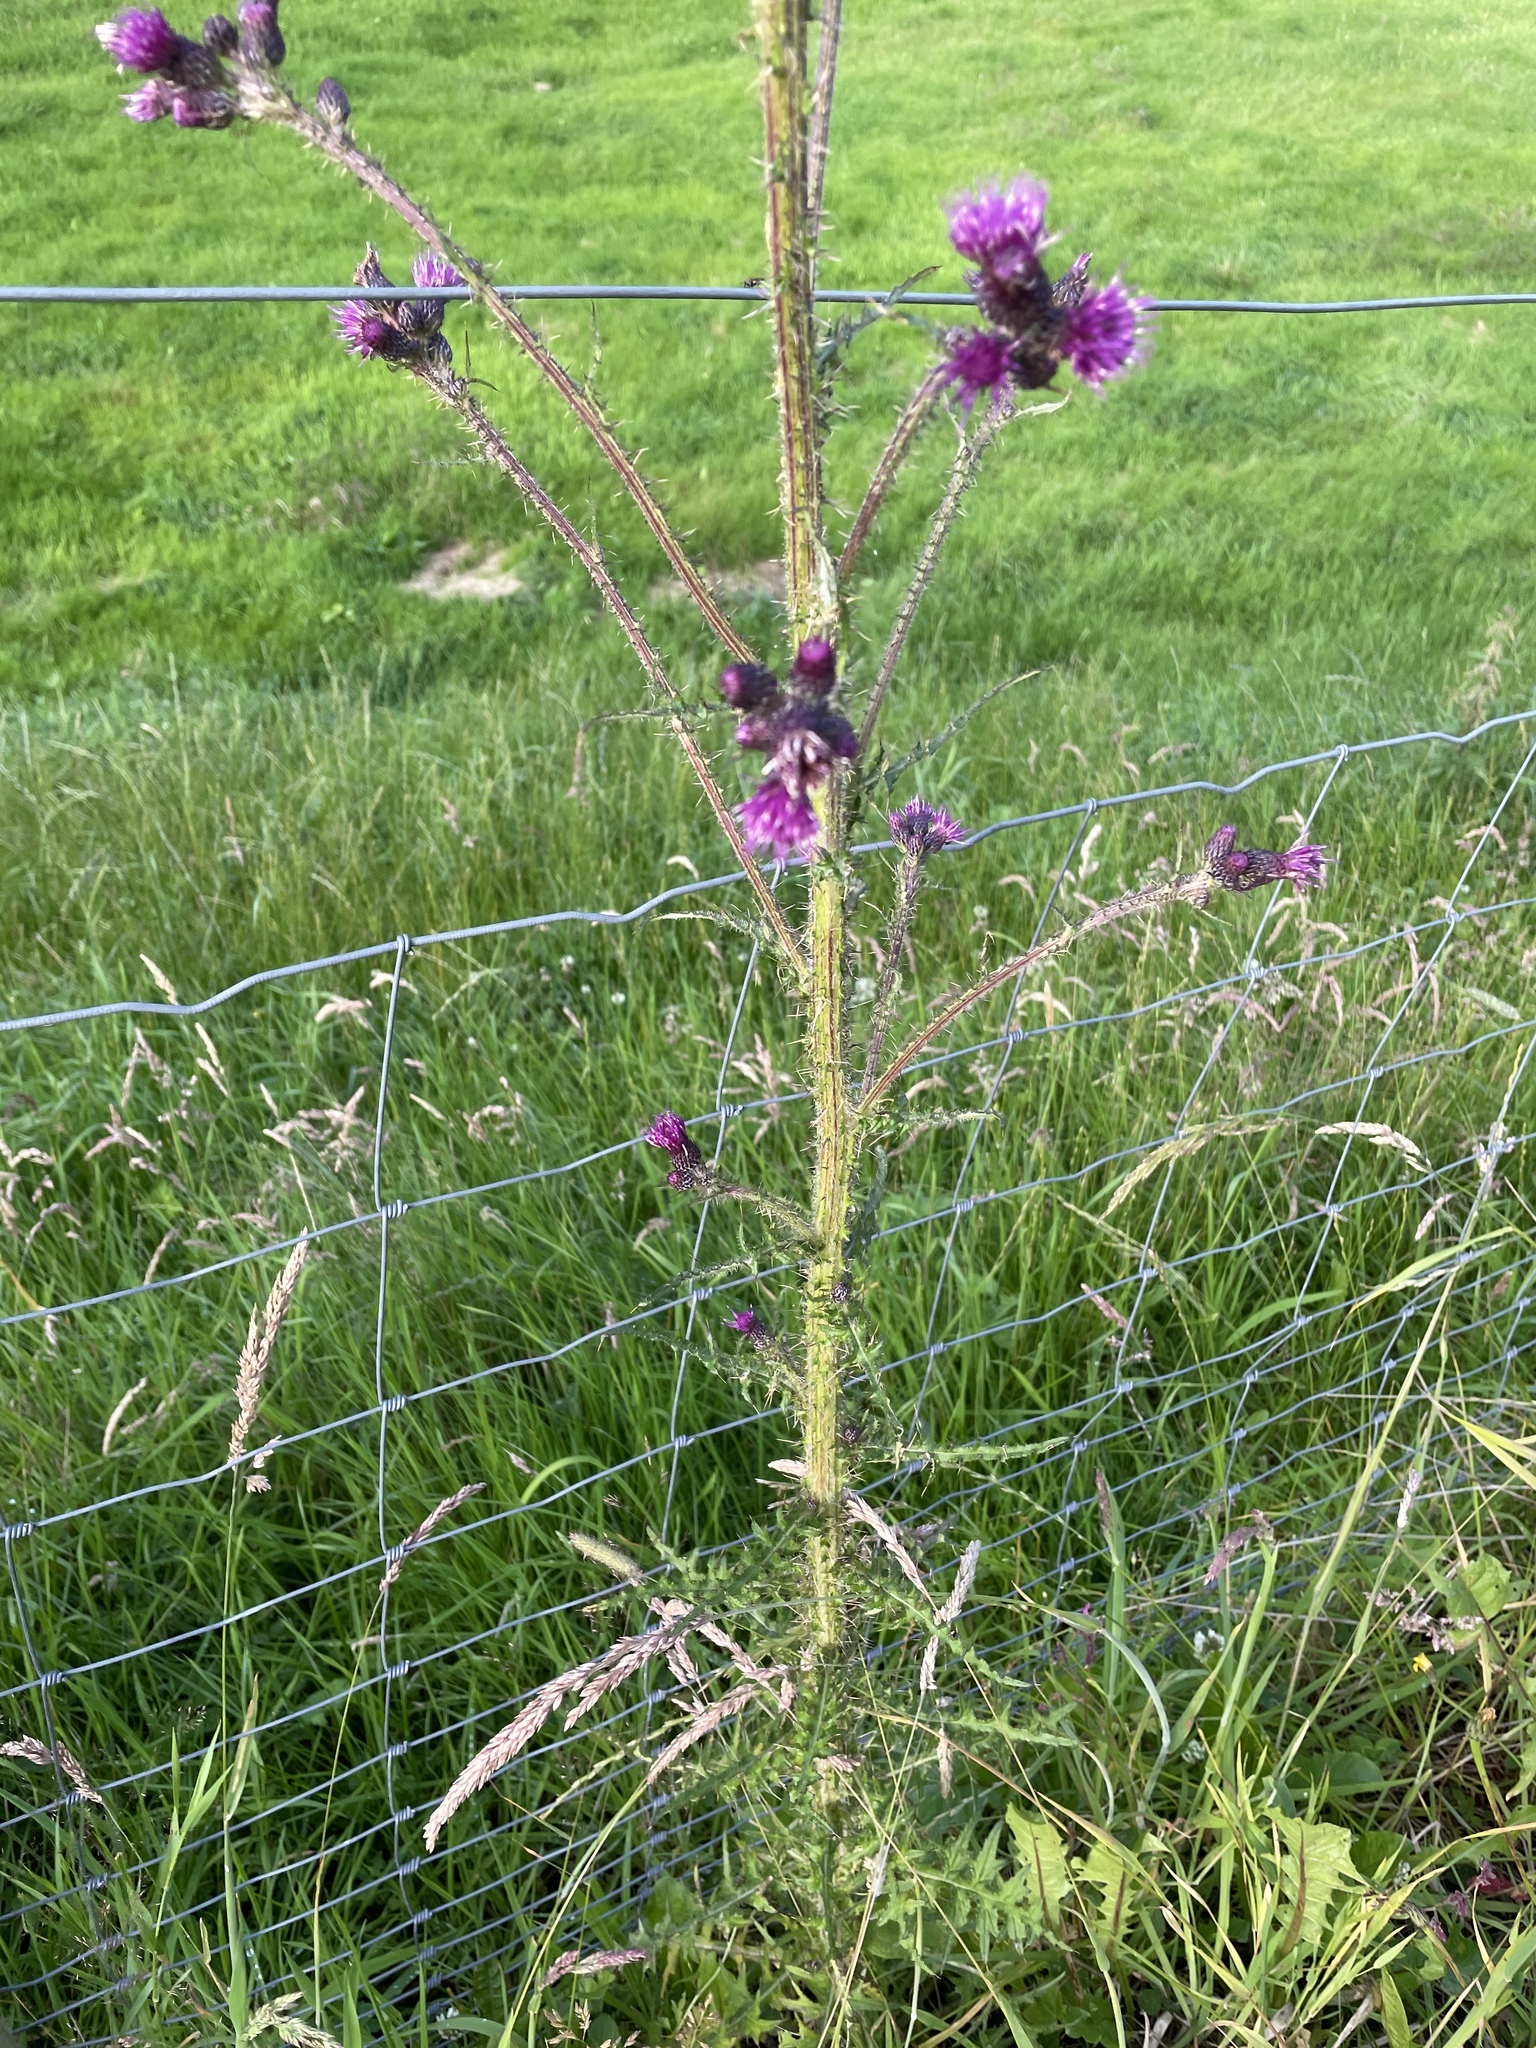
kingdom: Plantae
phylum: Tracheophyta
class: Magnoliopsida
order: Asterales
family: Asteraceae
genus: Cirsium
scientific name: Cirsium palustre
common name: Marsh thistle
